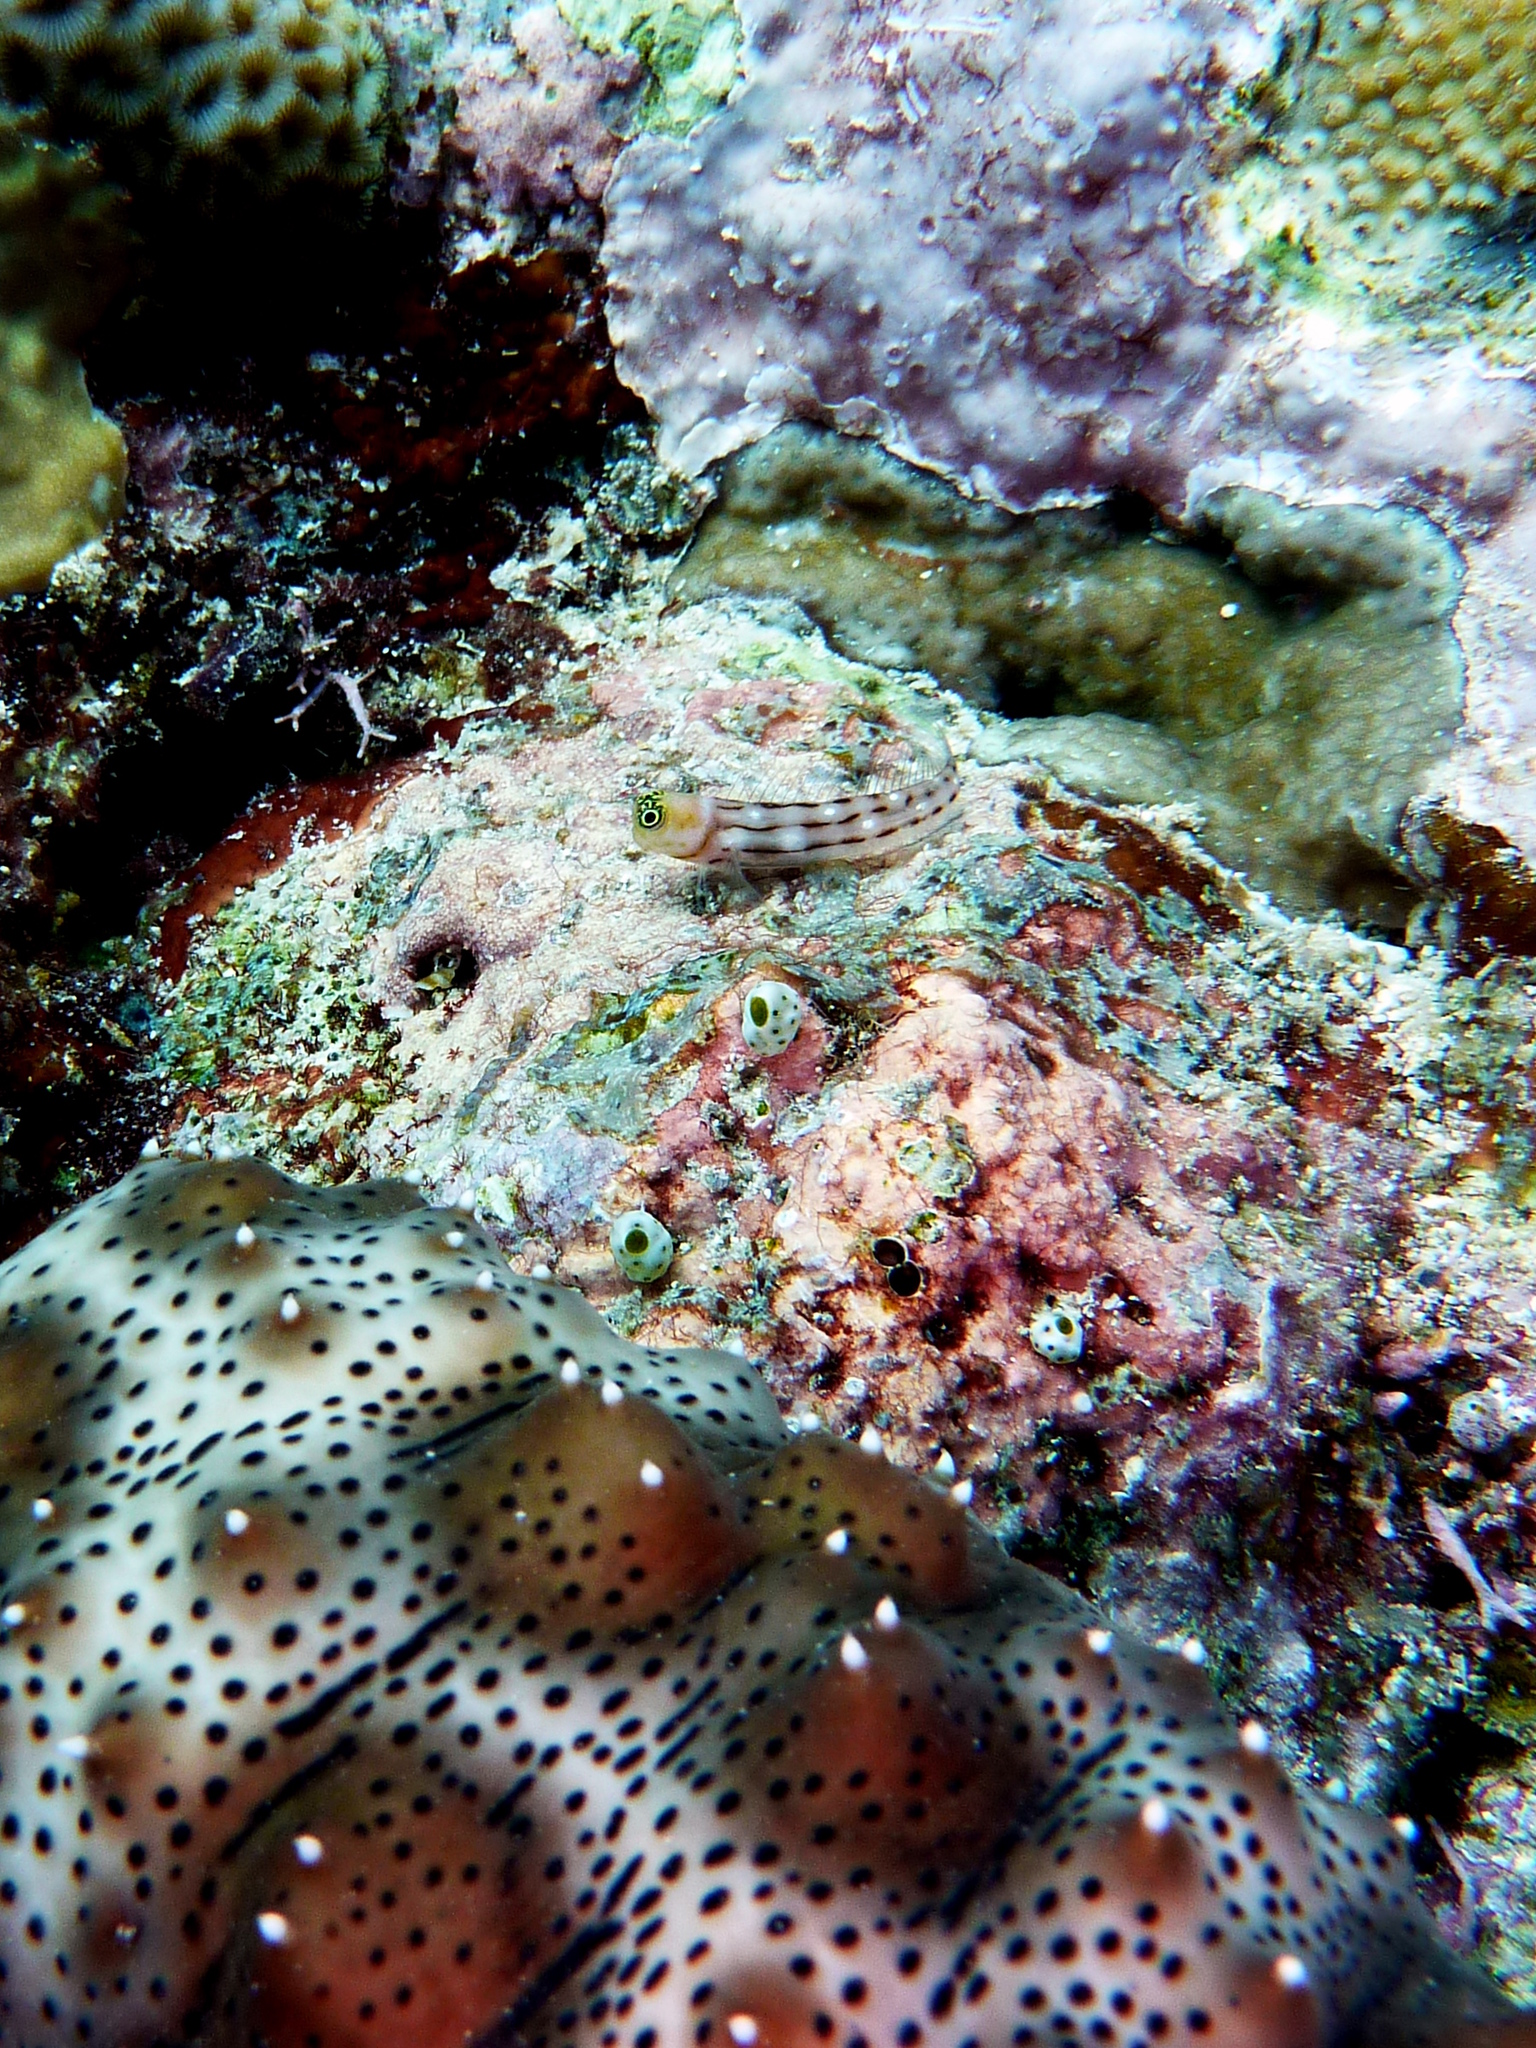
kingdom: Animalia
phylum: Chordata
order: Perciformes
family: Blenniidae
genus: Ecsenius
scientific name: Ecsenius trilineatus
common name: Three-lined blenny
